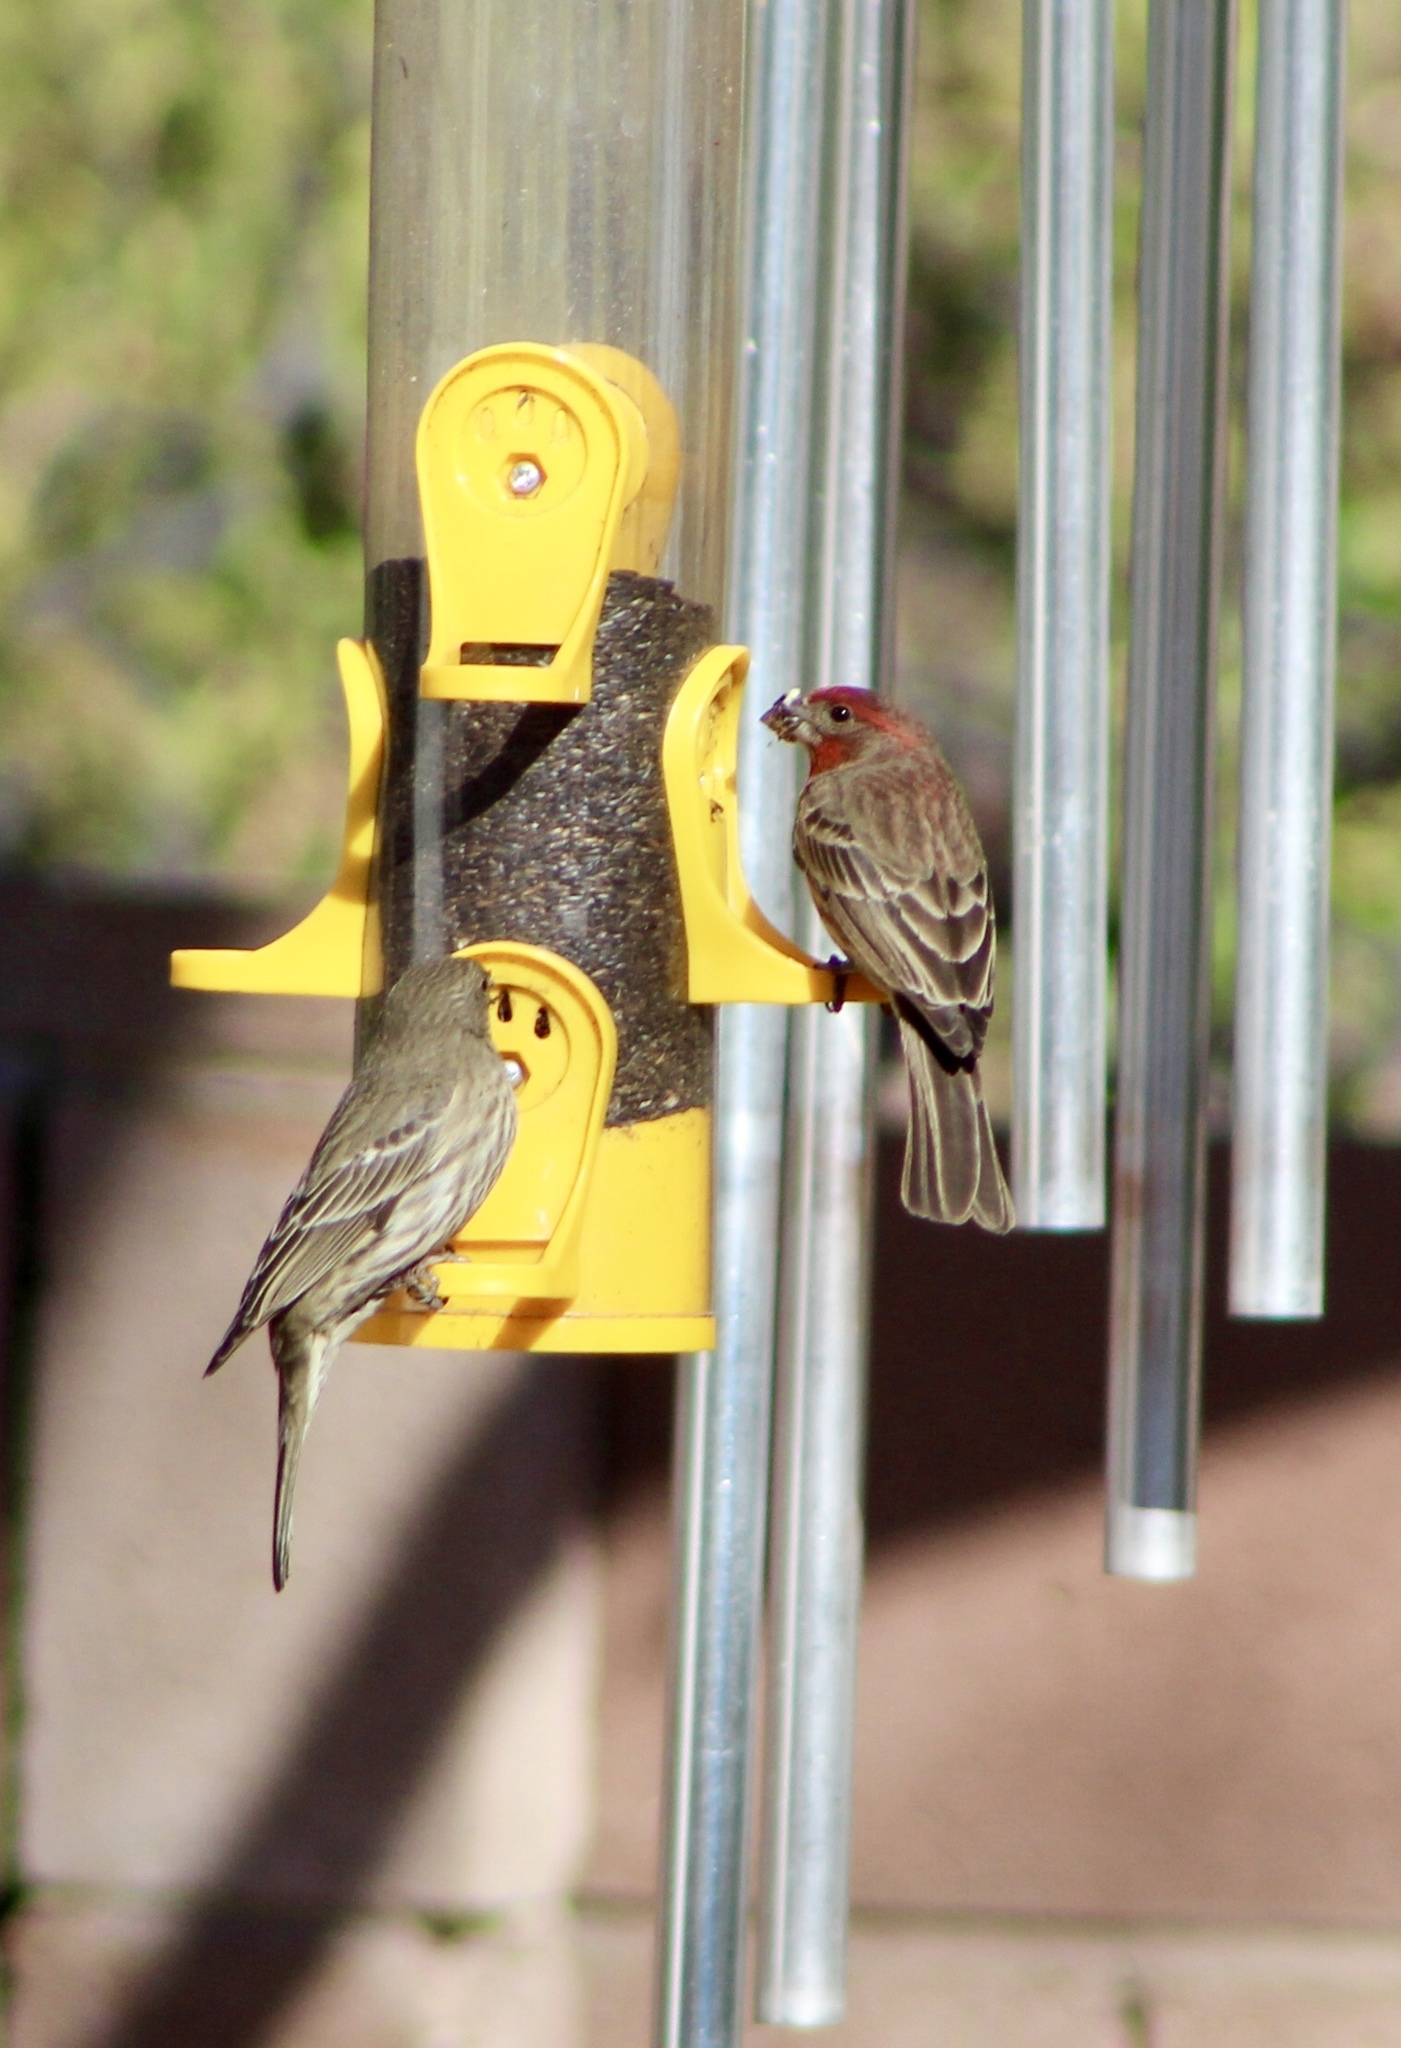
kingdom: Animalia
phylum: Chordata
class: Aves
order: Passeriformes
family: Fringillidae
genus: Haemorhous
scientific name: Haemorhous mexicanus
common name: House finch
